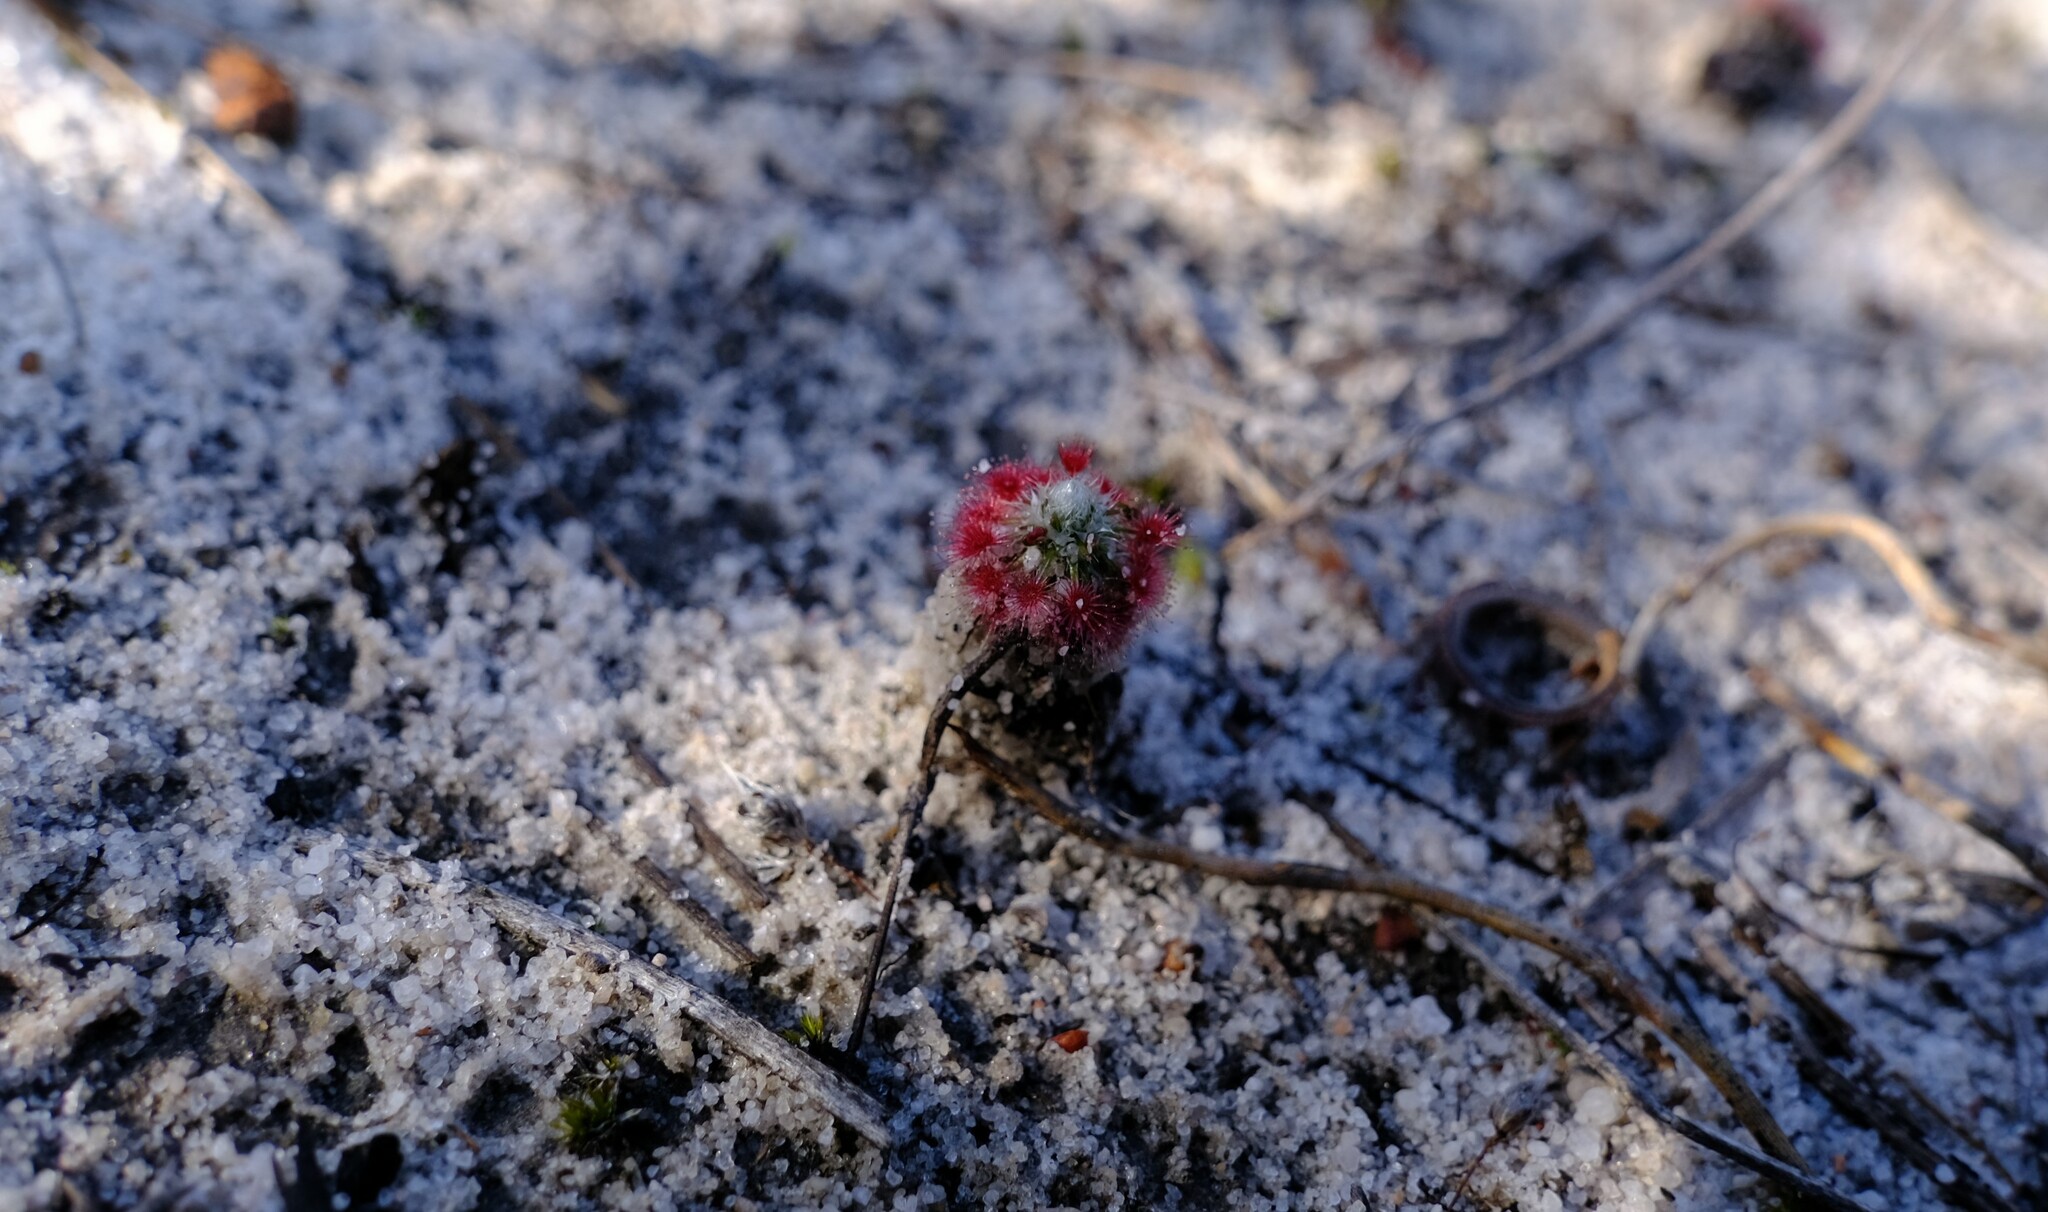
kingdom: Plantae
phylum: Tracheophyta
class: Magnoliopsida
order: Caryophyllales
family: Droseraceae
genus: Drosera
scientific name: Drosera paleacea
